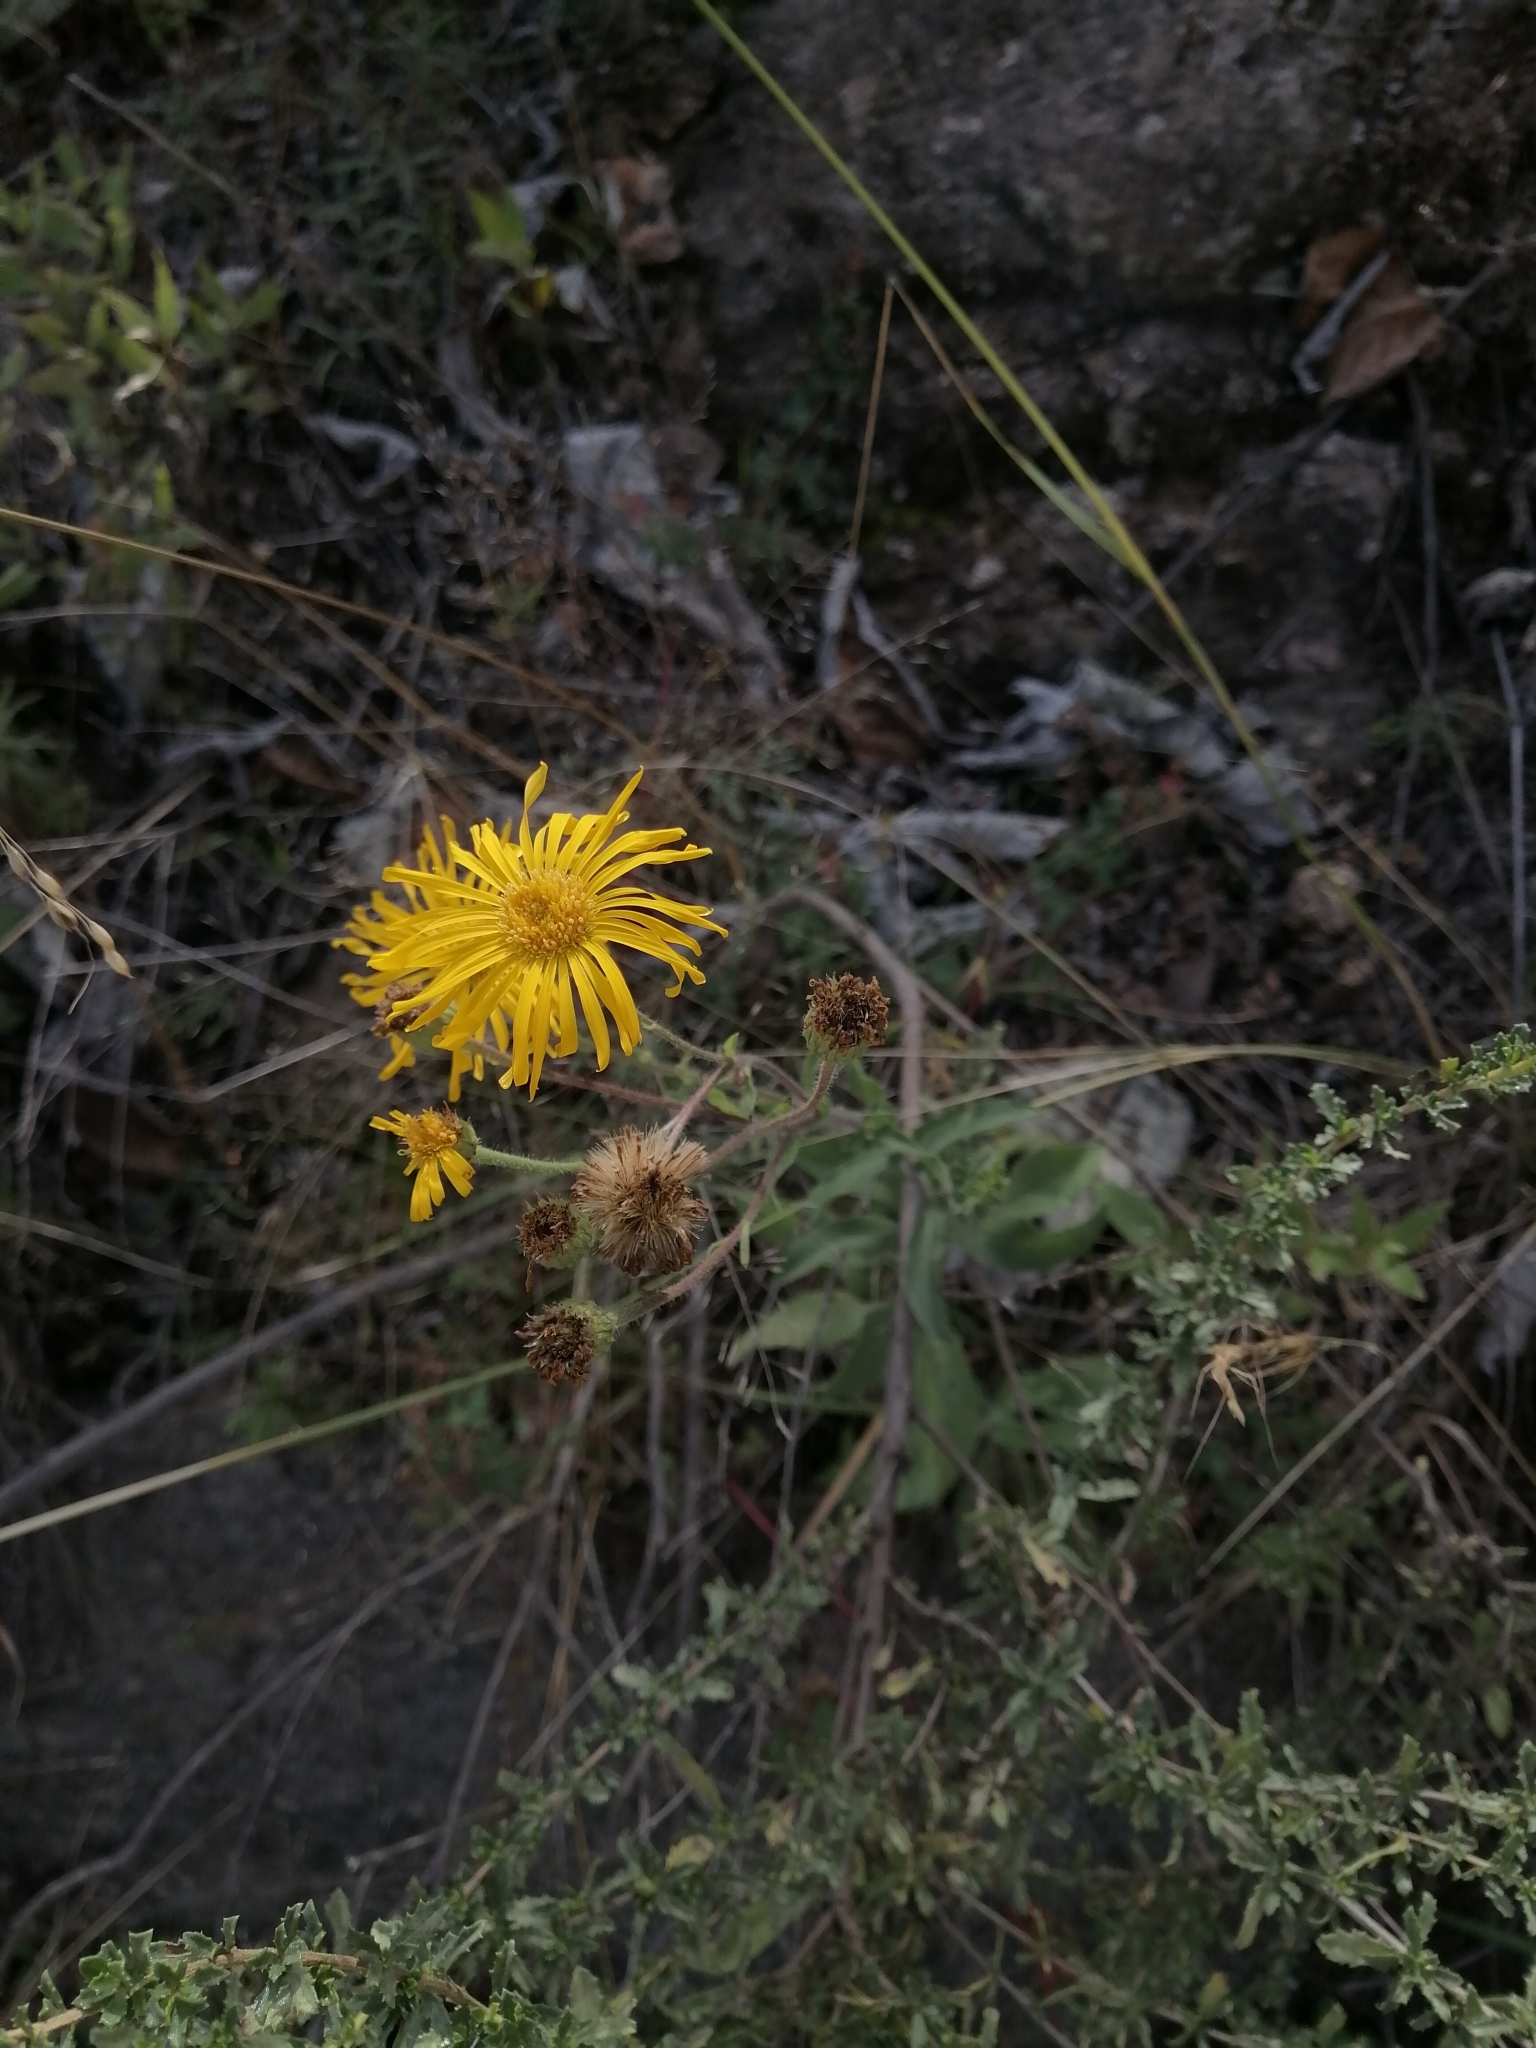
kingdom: Plantae
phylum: Tracheophyta
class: Magnoliopsida
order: Asterales
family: Asteraceae
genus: Heterotheca
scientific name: Heterotheca inuloides
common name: False arnica
